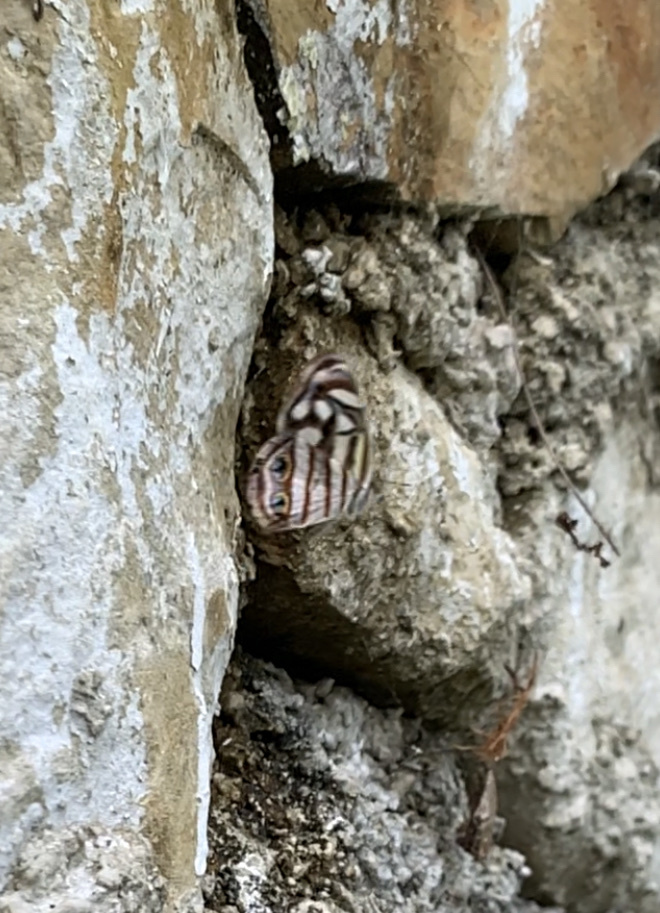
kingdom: Animalia
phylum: Arthropoda
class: Insecta
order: Lepidoptera
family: Nymphalidae
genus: Dynamine
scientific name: Dynamine mylitta
